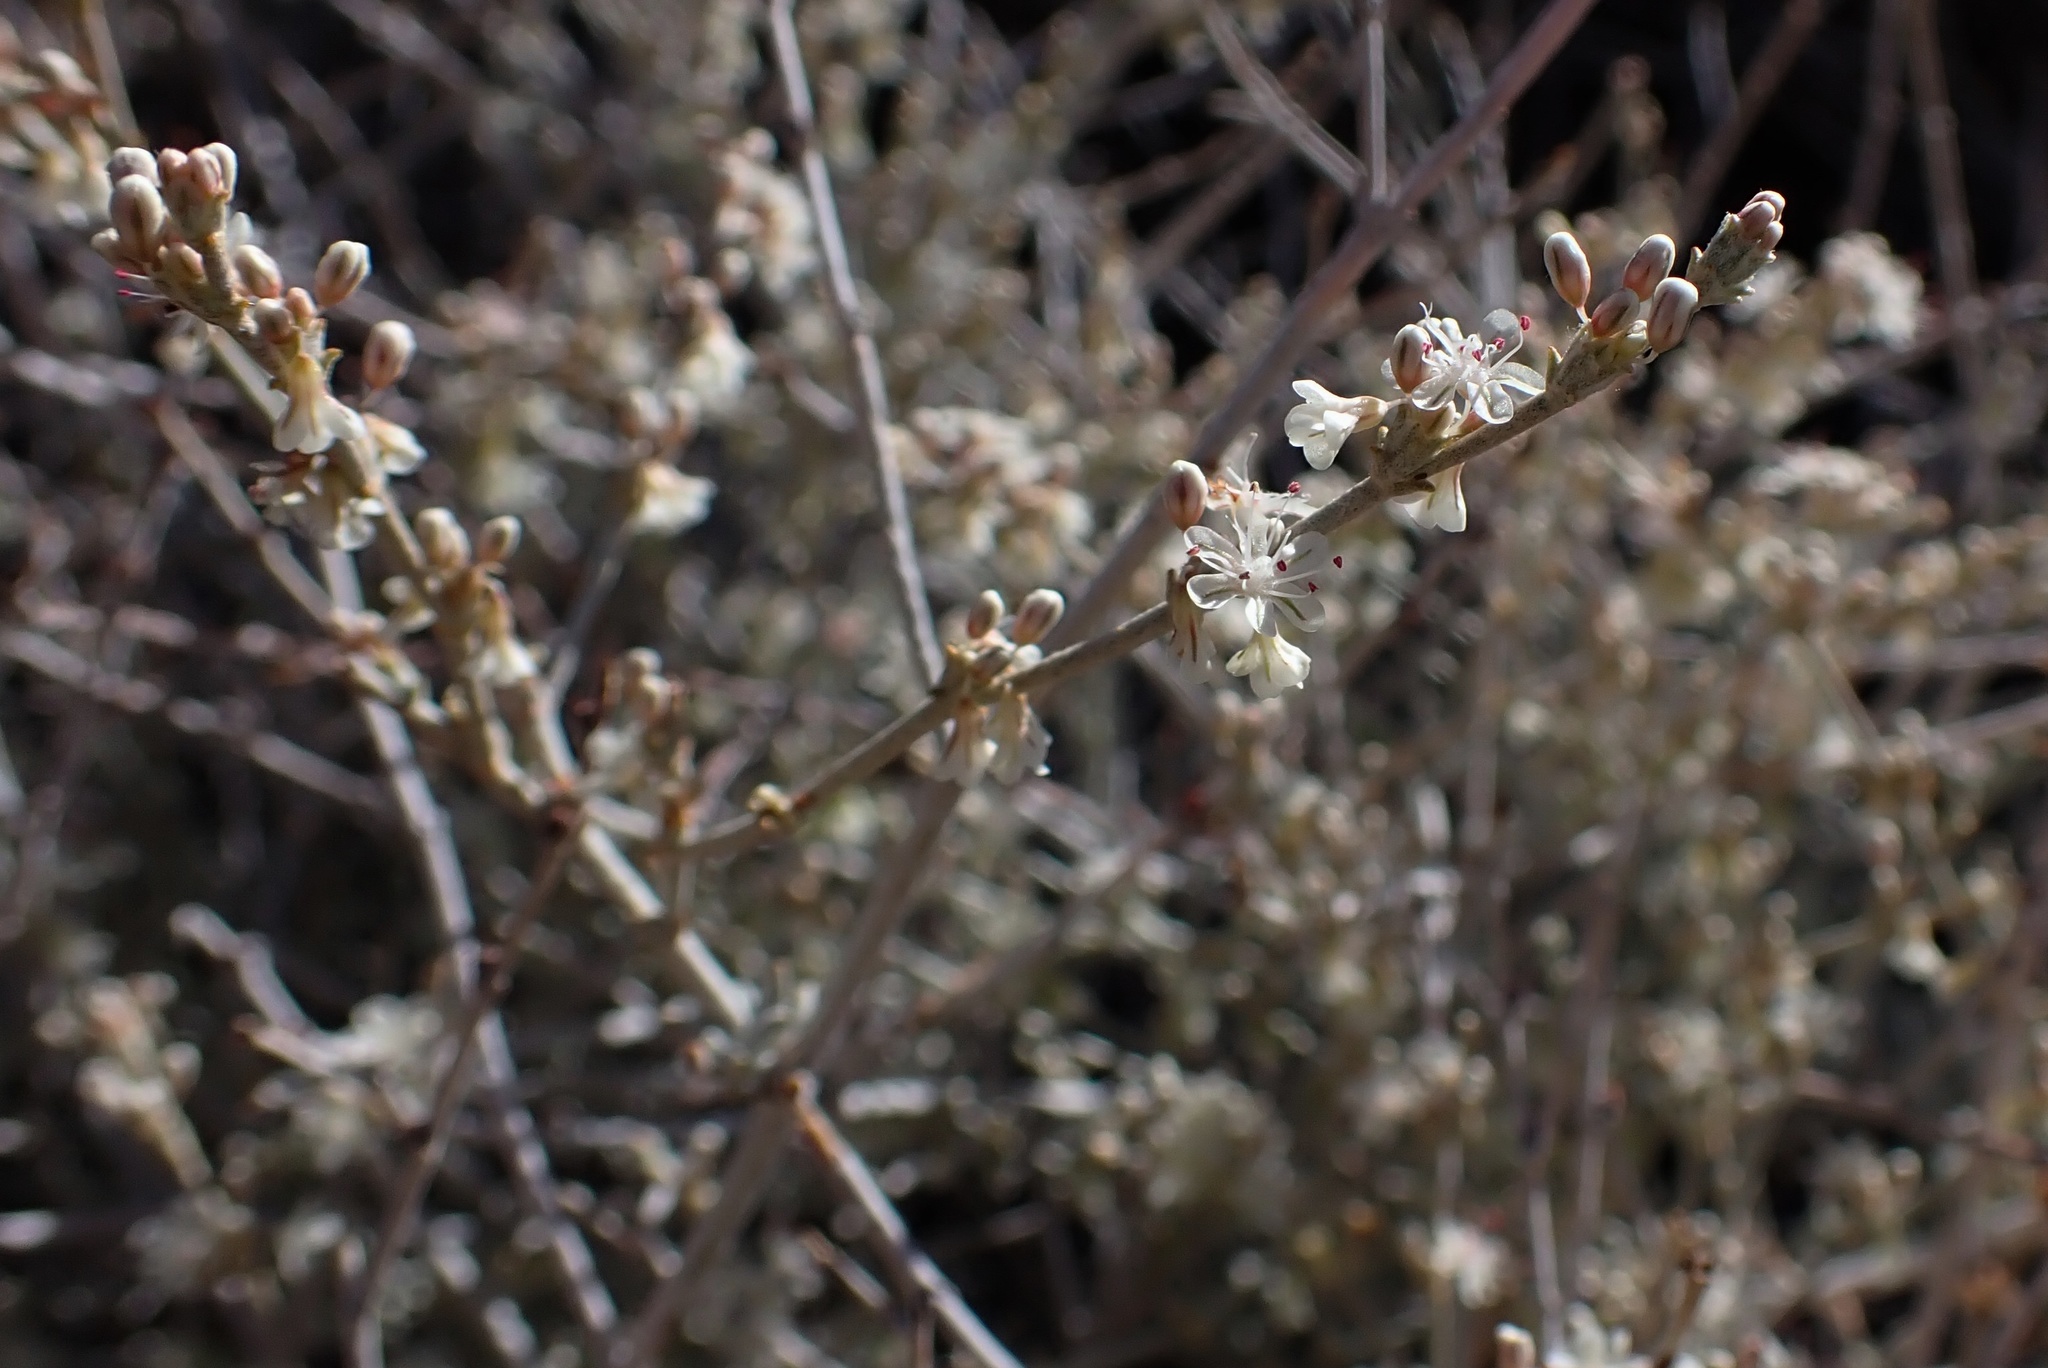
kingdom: Plantae
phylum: Tracheophyta
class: Magnoliopsida
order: Caryophyllales
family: Polygonaceae
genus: Eriogonum
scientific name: Eriogonum wrightii
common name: Bastard-sage
